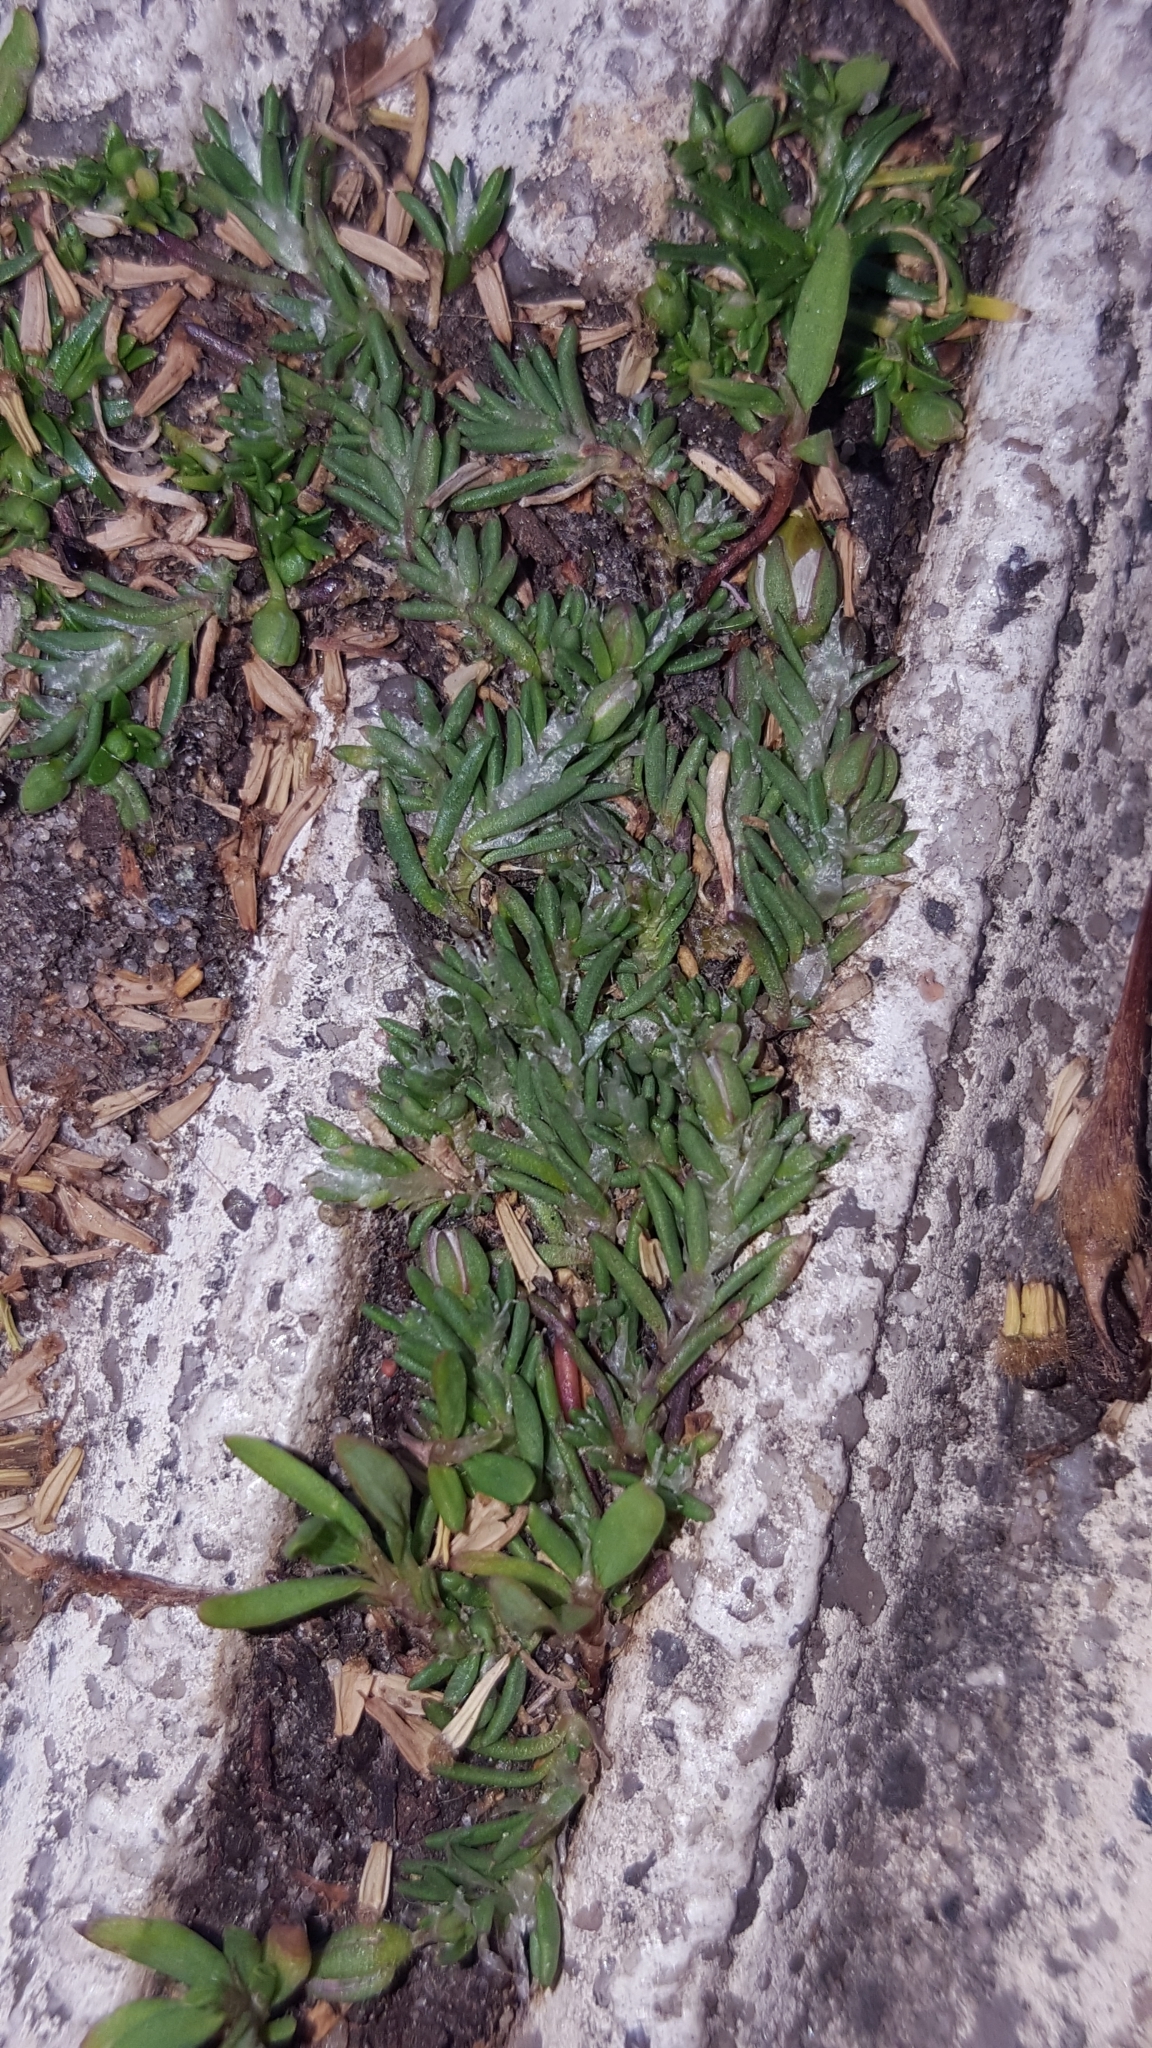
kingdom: Plantae
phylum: Tracheophyta
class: Magnoliopsida
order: Caryophyllales
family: Caryophyllaceae
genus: Spergularia
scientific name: Spergularia rubra
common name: Red sand-spurrey
